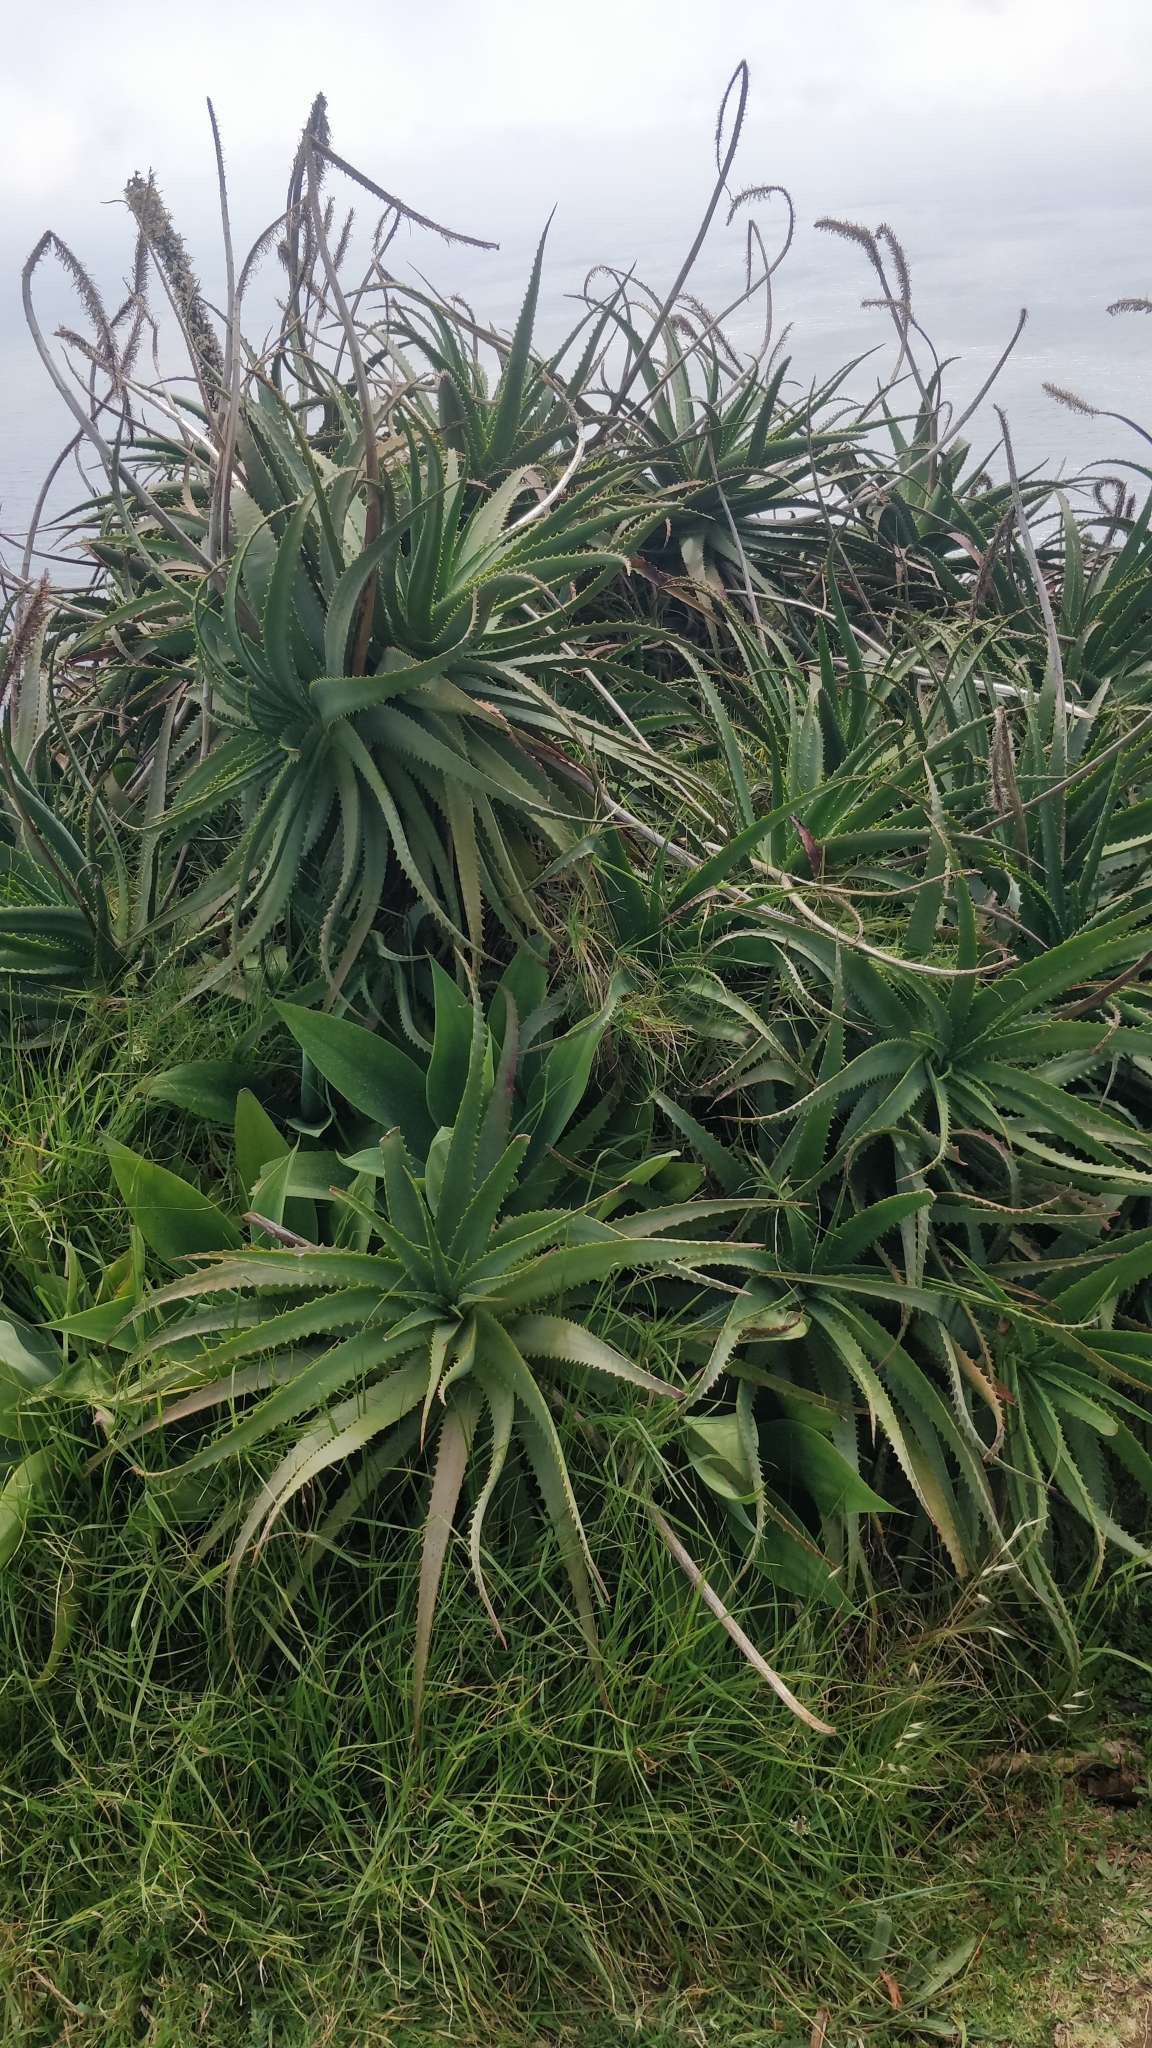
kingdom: Plantae
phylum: Tracheophyta
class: Liliopsida
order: Asparagales
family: Asphodelaceae
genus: Aloe
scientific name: Aloe arborescens
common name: Candelabra aloe
